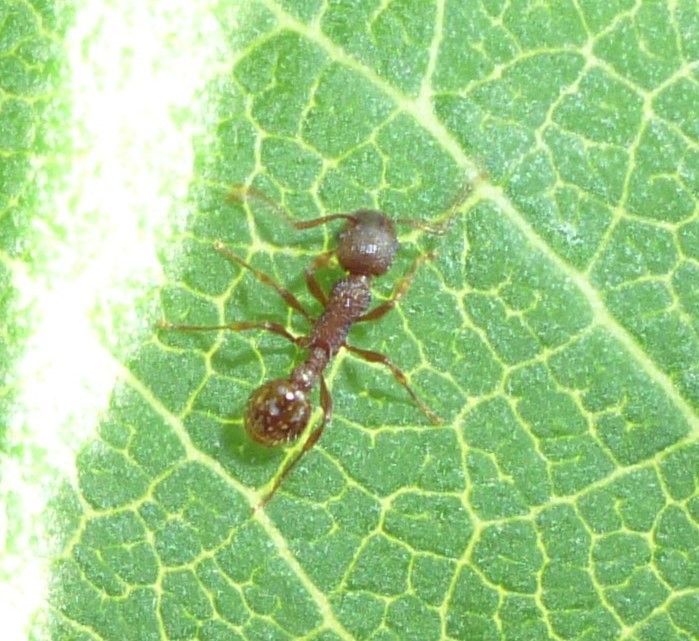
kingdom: Animalia
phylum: Arthropoda
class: Insecta
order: Hymenoptera
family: Formicidae
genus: Myrmica
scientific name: Myrmica
